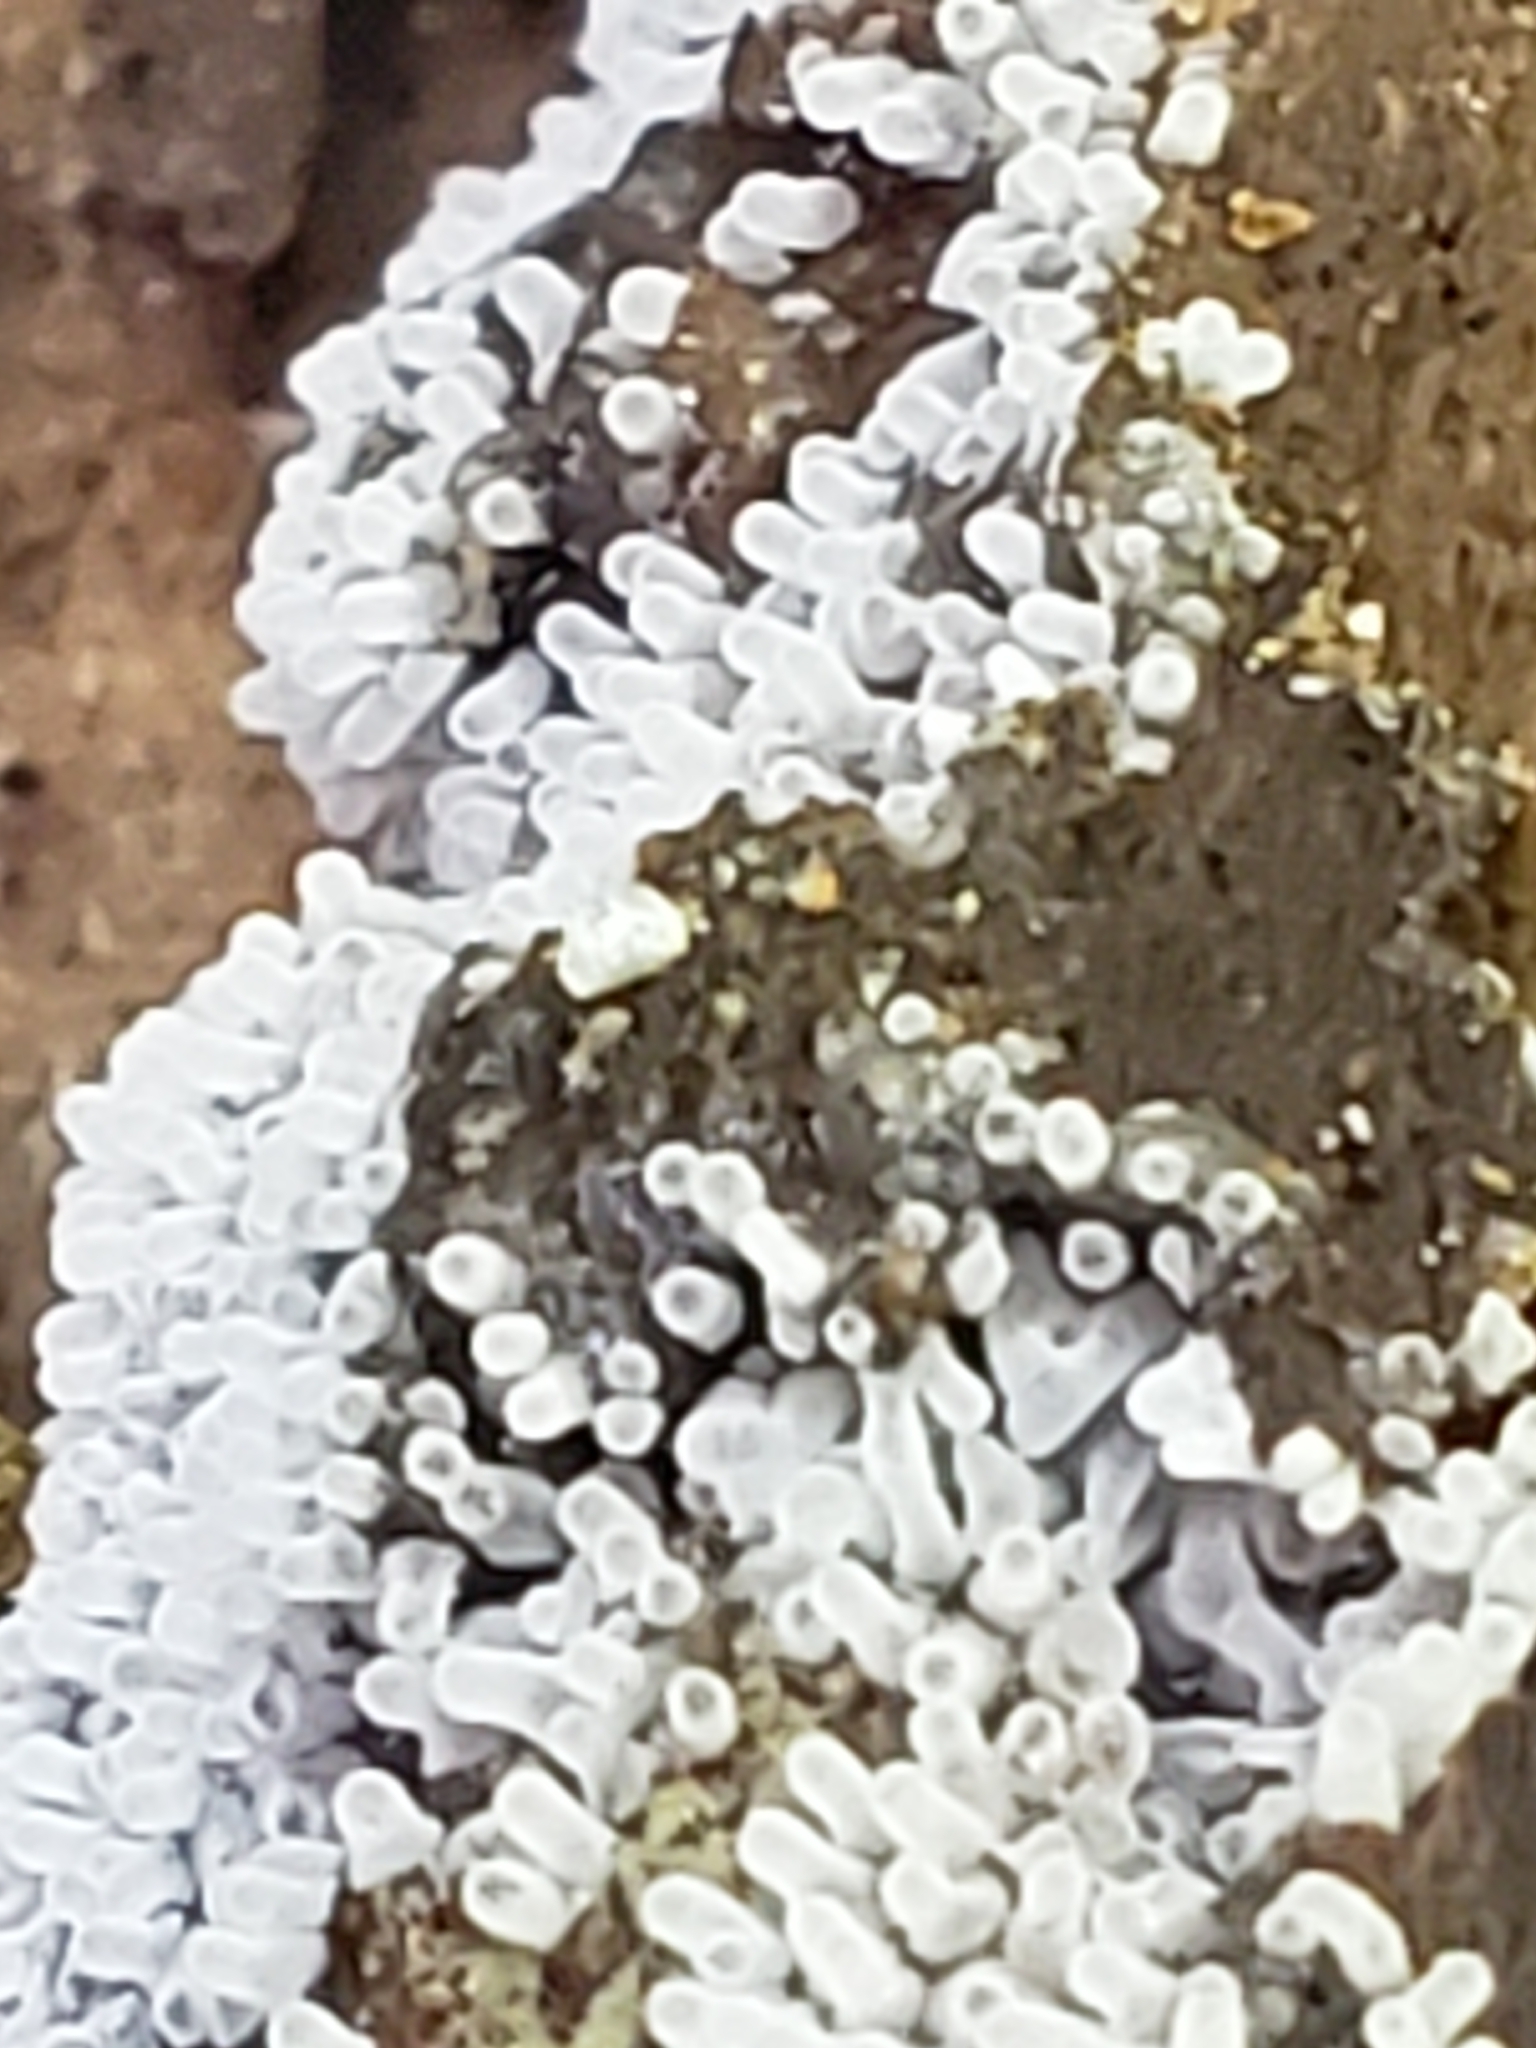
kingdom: Protozoa
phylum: Mycetozoa
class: Protosteliomycetes
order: Ceratiomyxales
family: Ceratiomyxaceae
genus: Ceratiomyxa
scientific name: Ceratiomyxa fruticulosa
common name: Honeycomb coral slime mold
